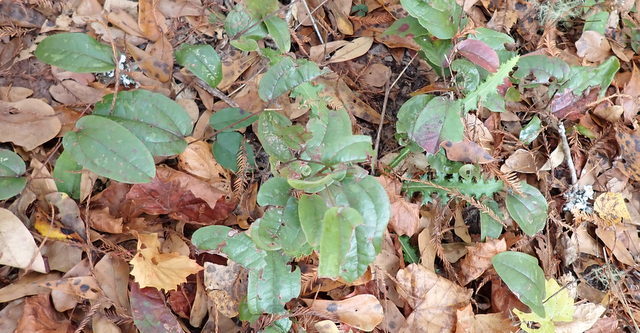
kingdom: Plantae
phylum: Tracheophyta
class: Liliopsida
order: Liliales
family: Smilacaceae
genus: Smilax
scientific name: Smilax pumila
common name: Sarsaparilla-vine
